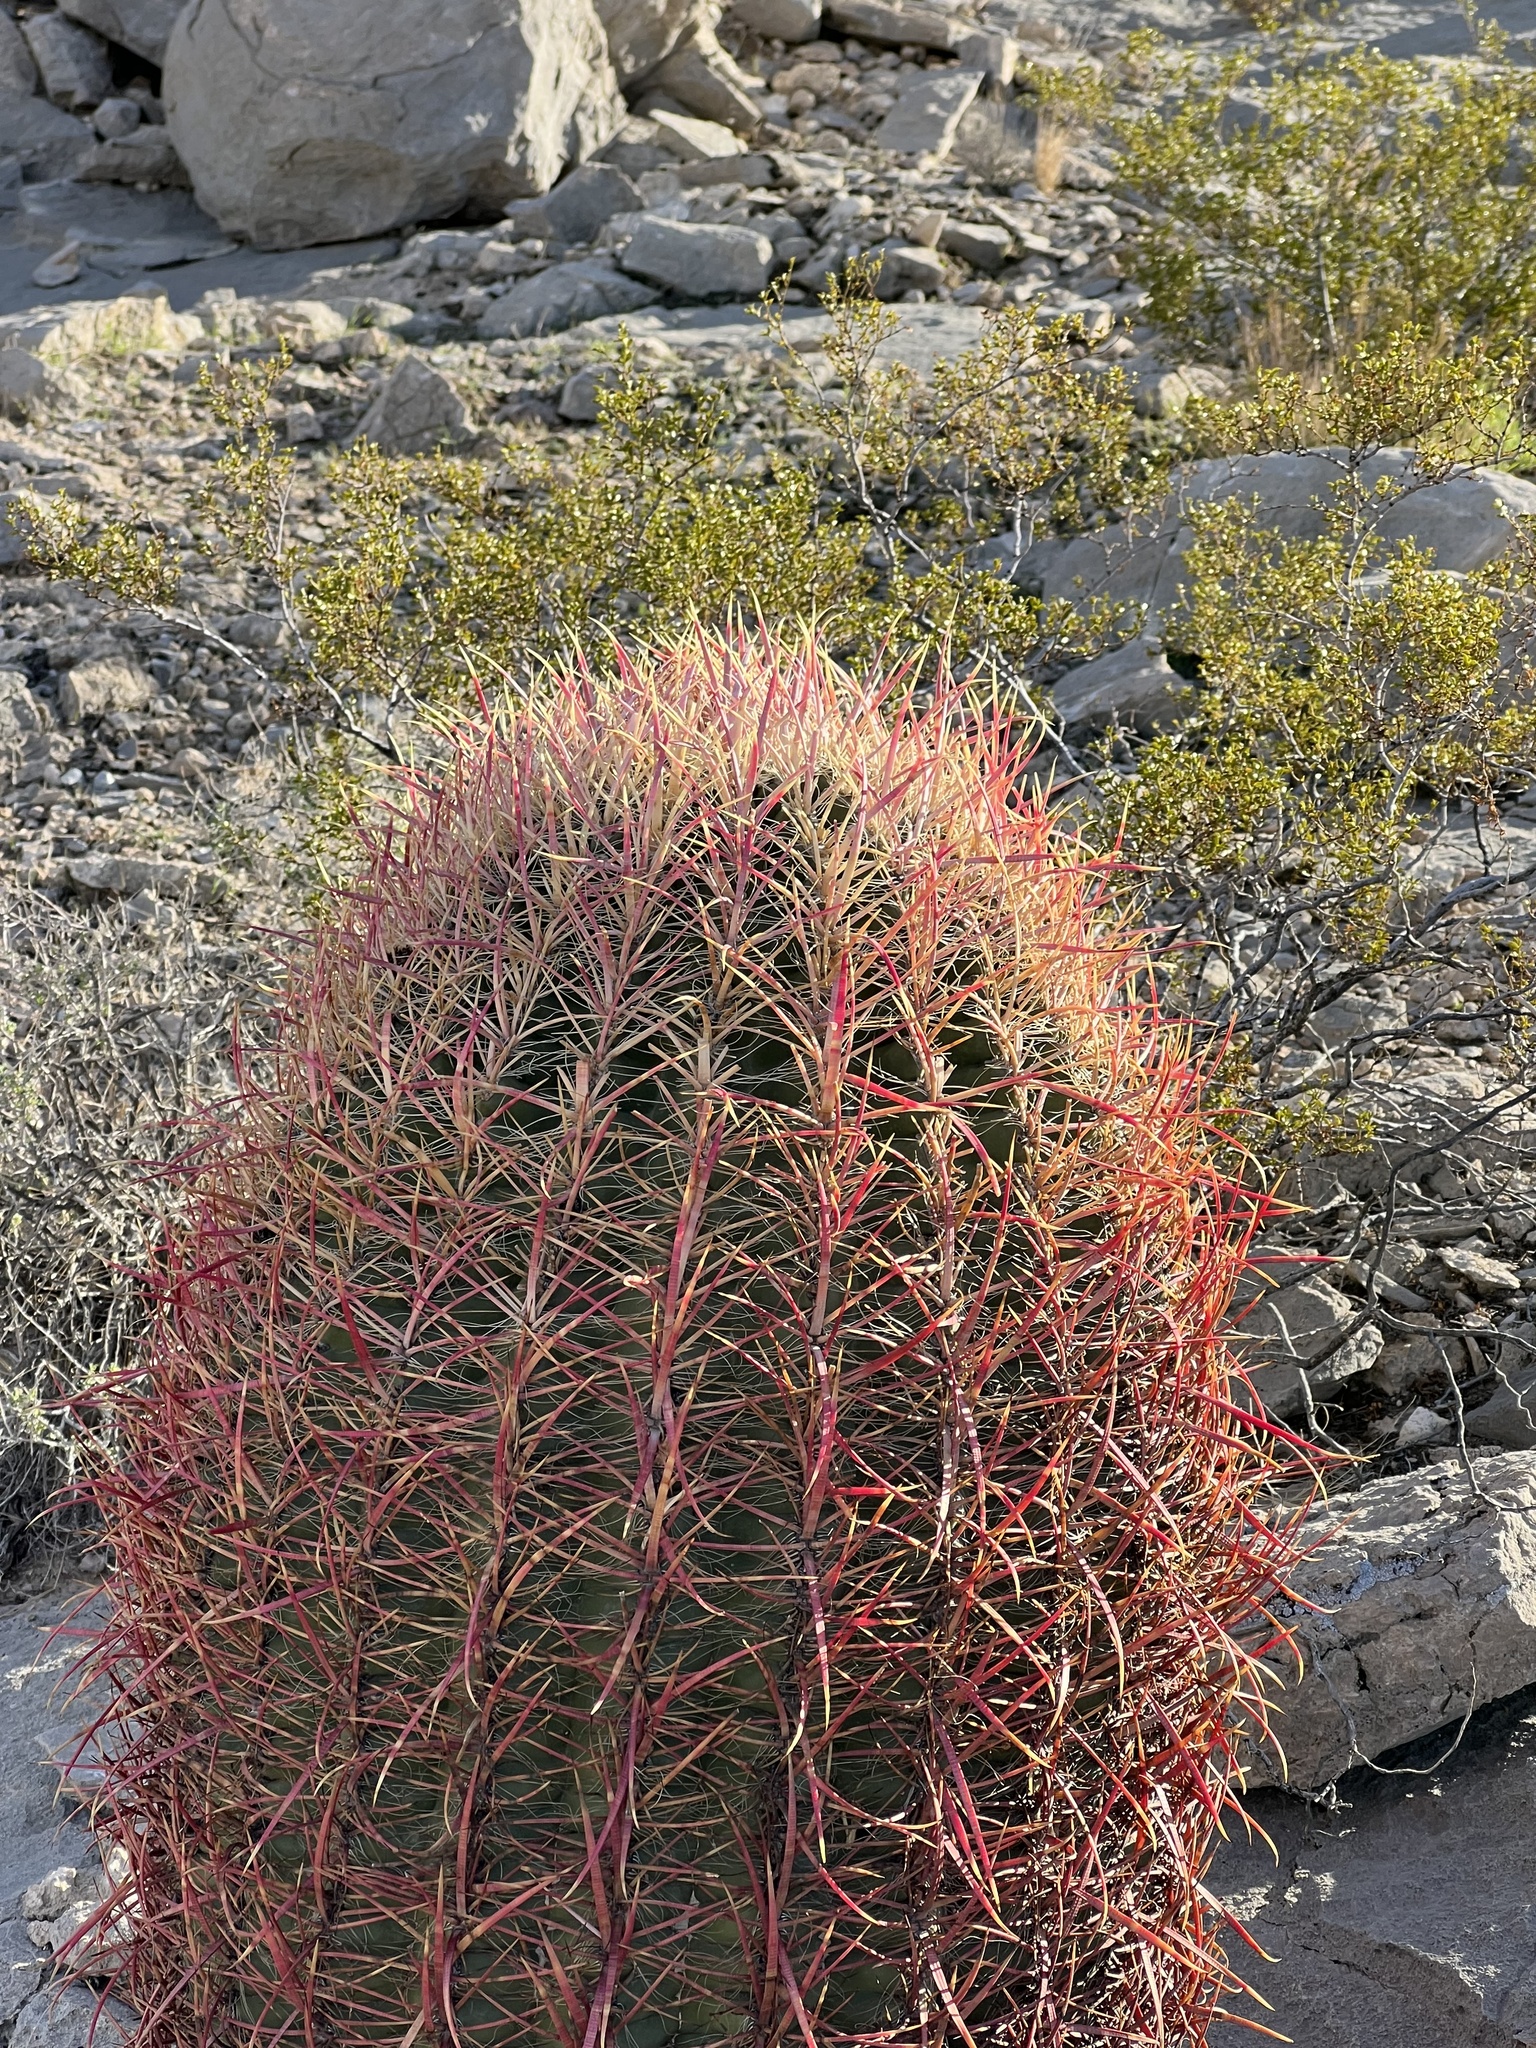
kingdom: Plantae
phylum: Tracheophyta
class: Magnoliopsida
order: Caryophyllales
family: Cactaceae
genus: Ferocactus
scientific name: Ferocactus cylindraceus
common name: California barrel cactus
